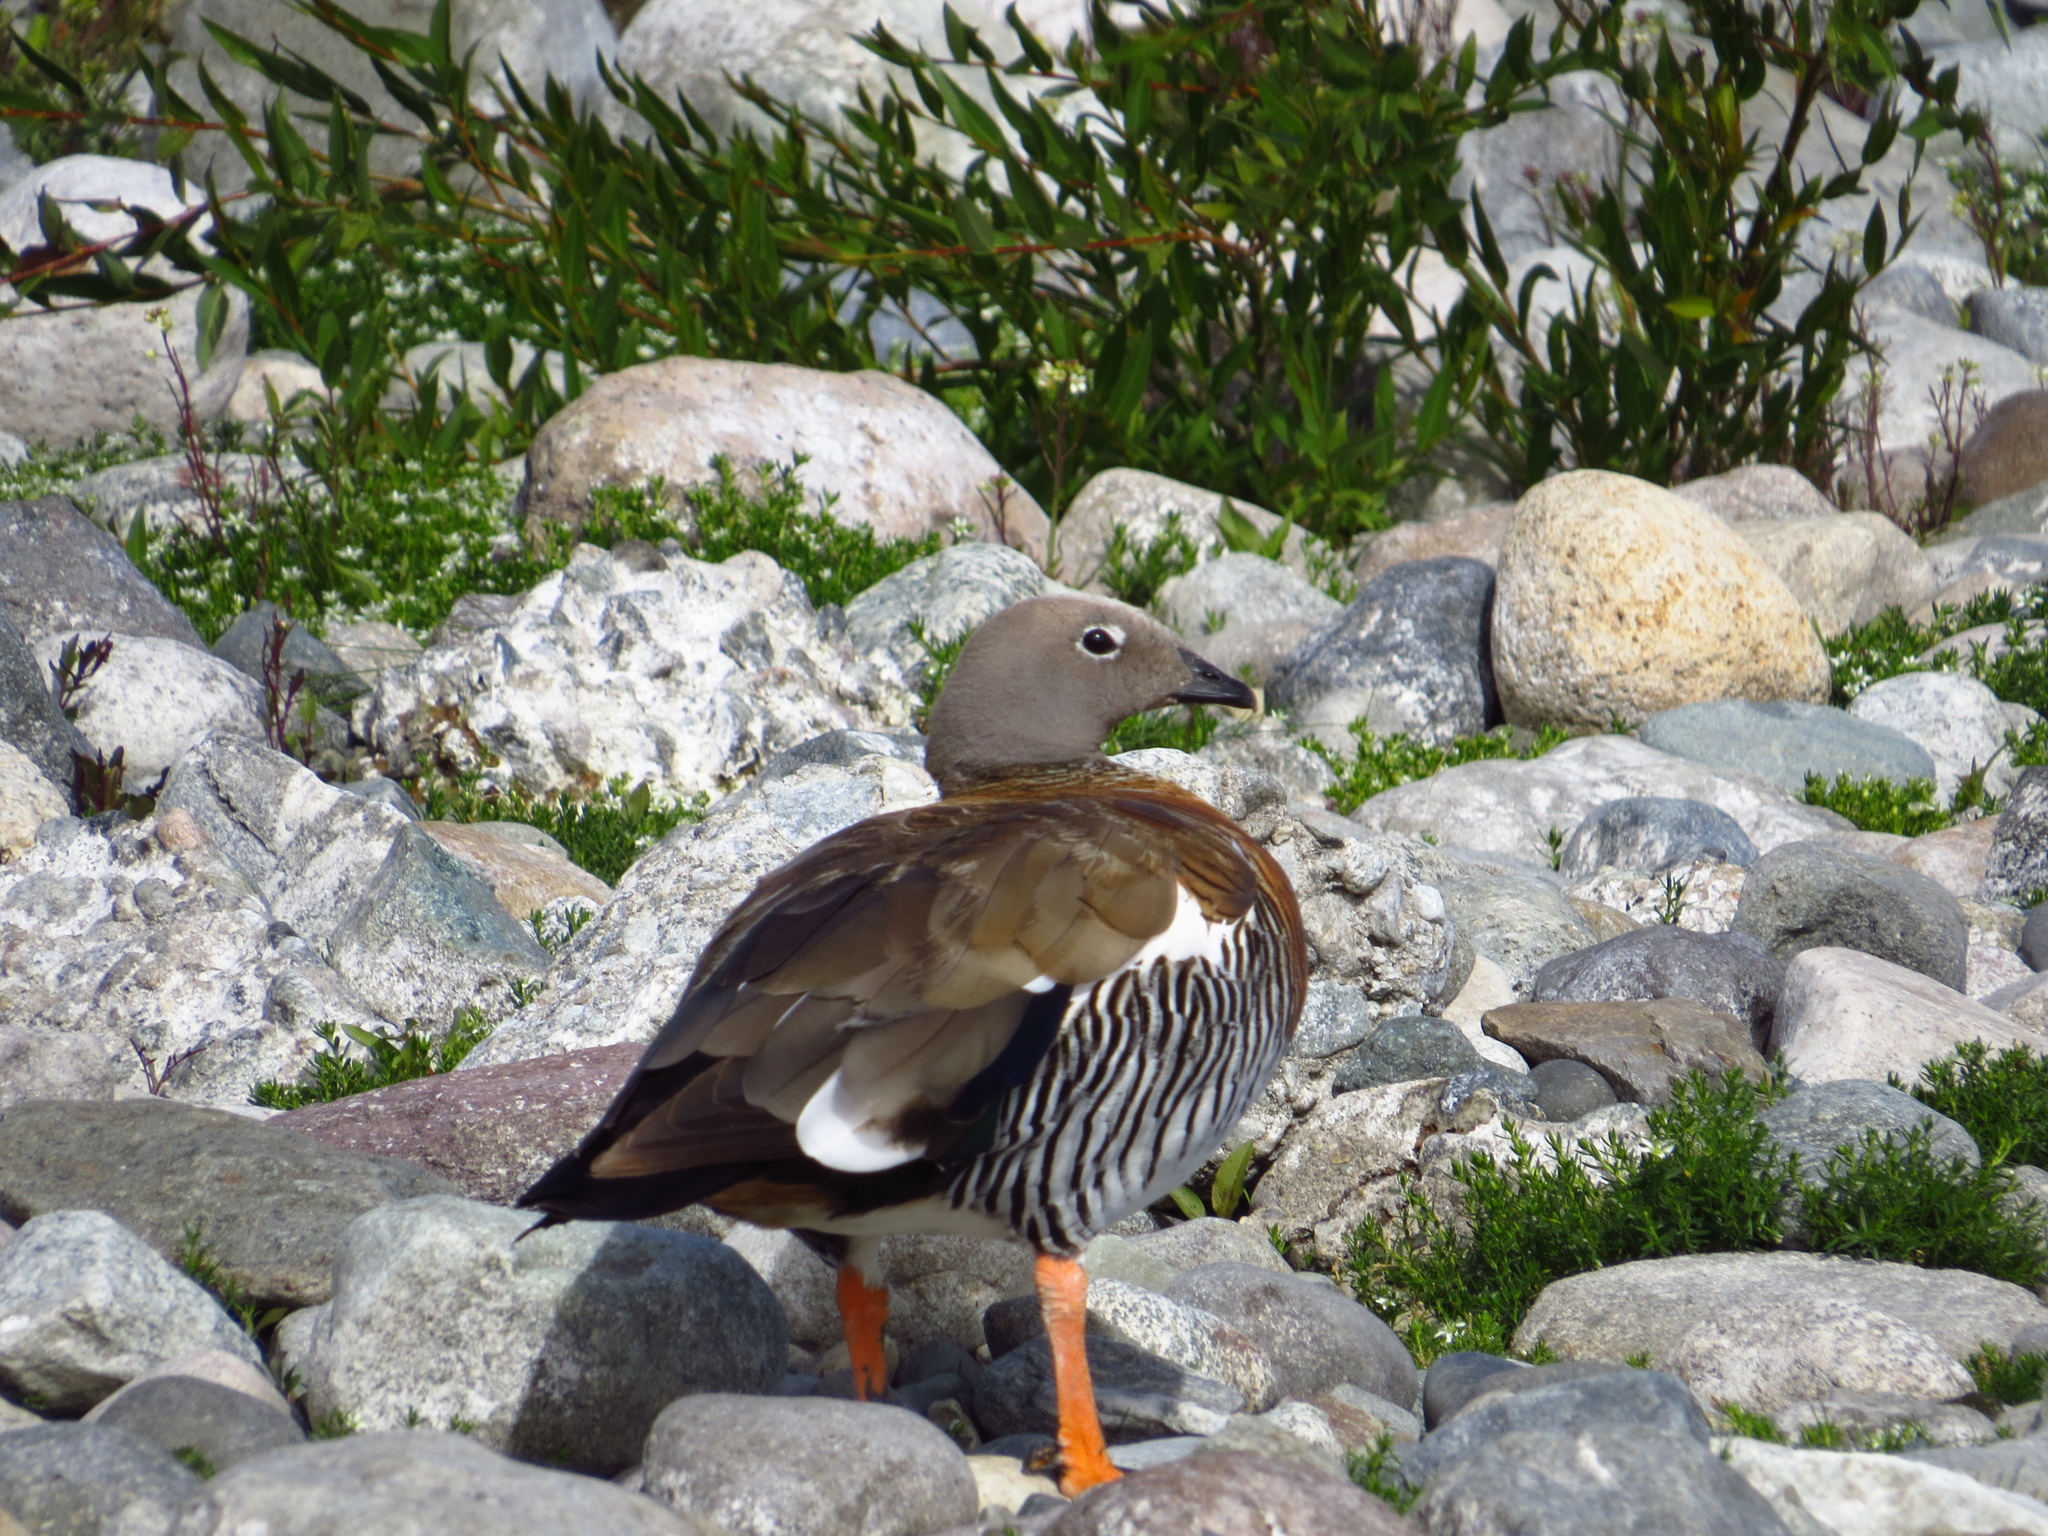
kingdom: Animalia
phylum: Chordata
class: Aves
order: Anseriformes
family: Anatidae
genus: Chloephaga
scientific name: Chloephaga poliocephala
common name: Ashy-headed goose
